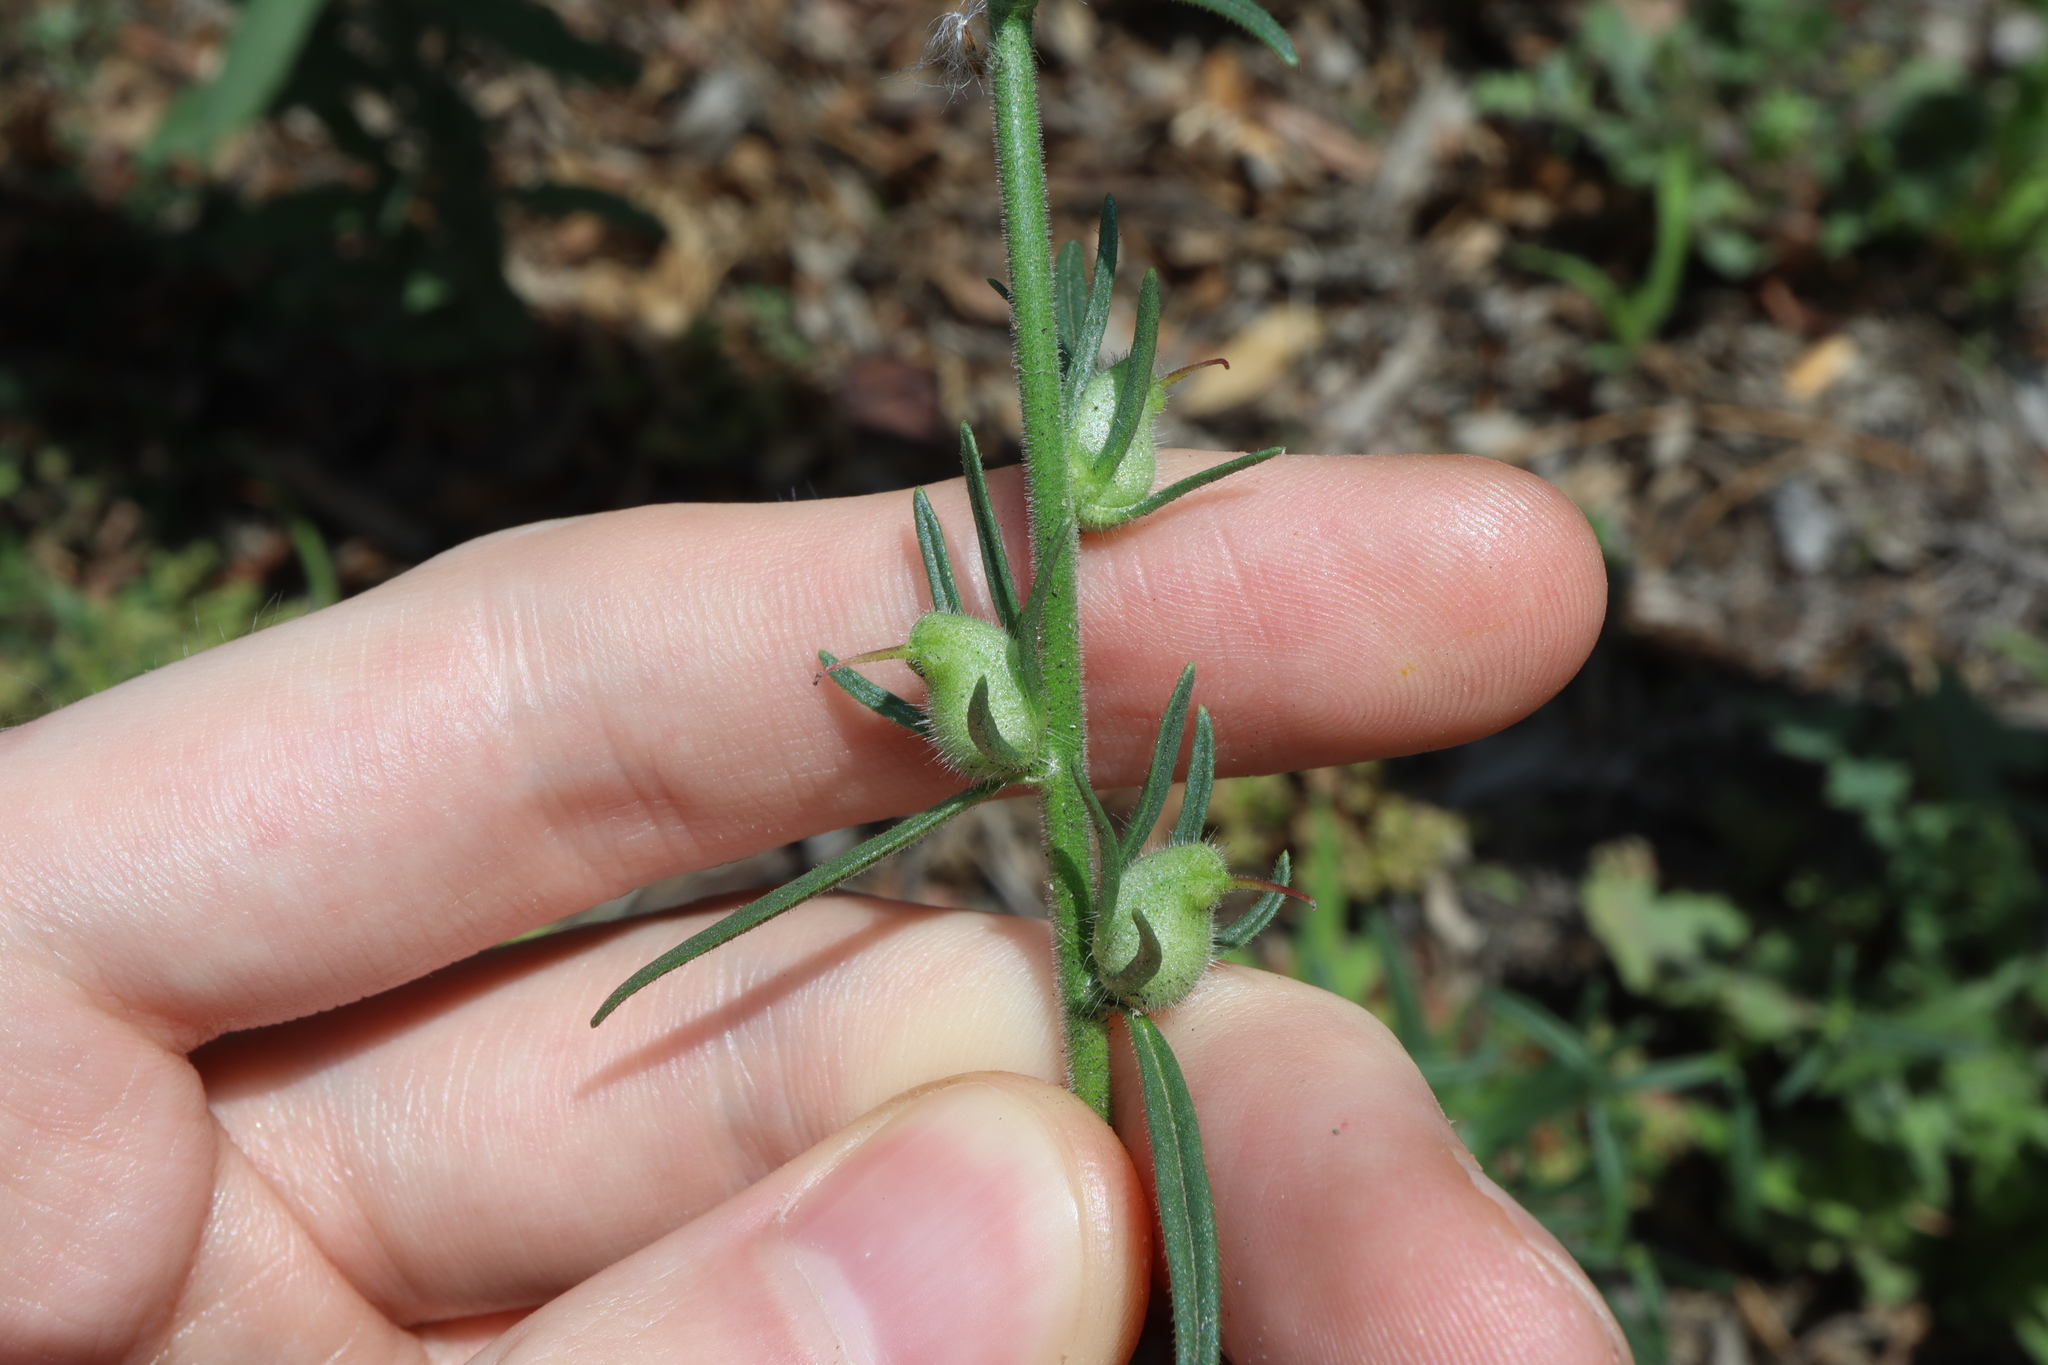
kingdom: Plantae
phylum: Tracheophyta
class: Magnoliopsida
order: Lamiales
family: Plantaginaceae
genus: Misopates
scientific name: Misopates orontium
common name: Weasel's-snout
